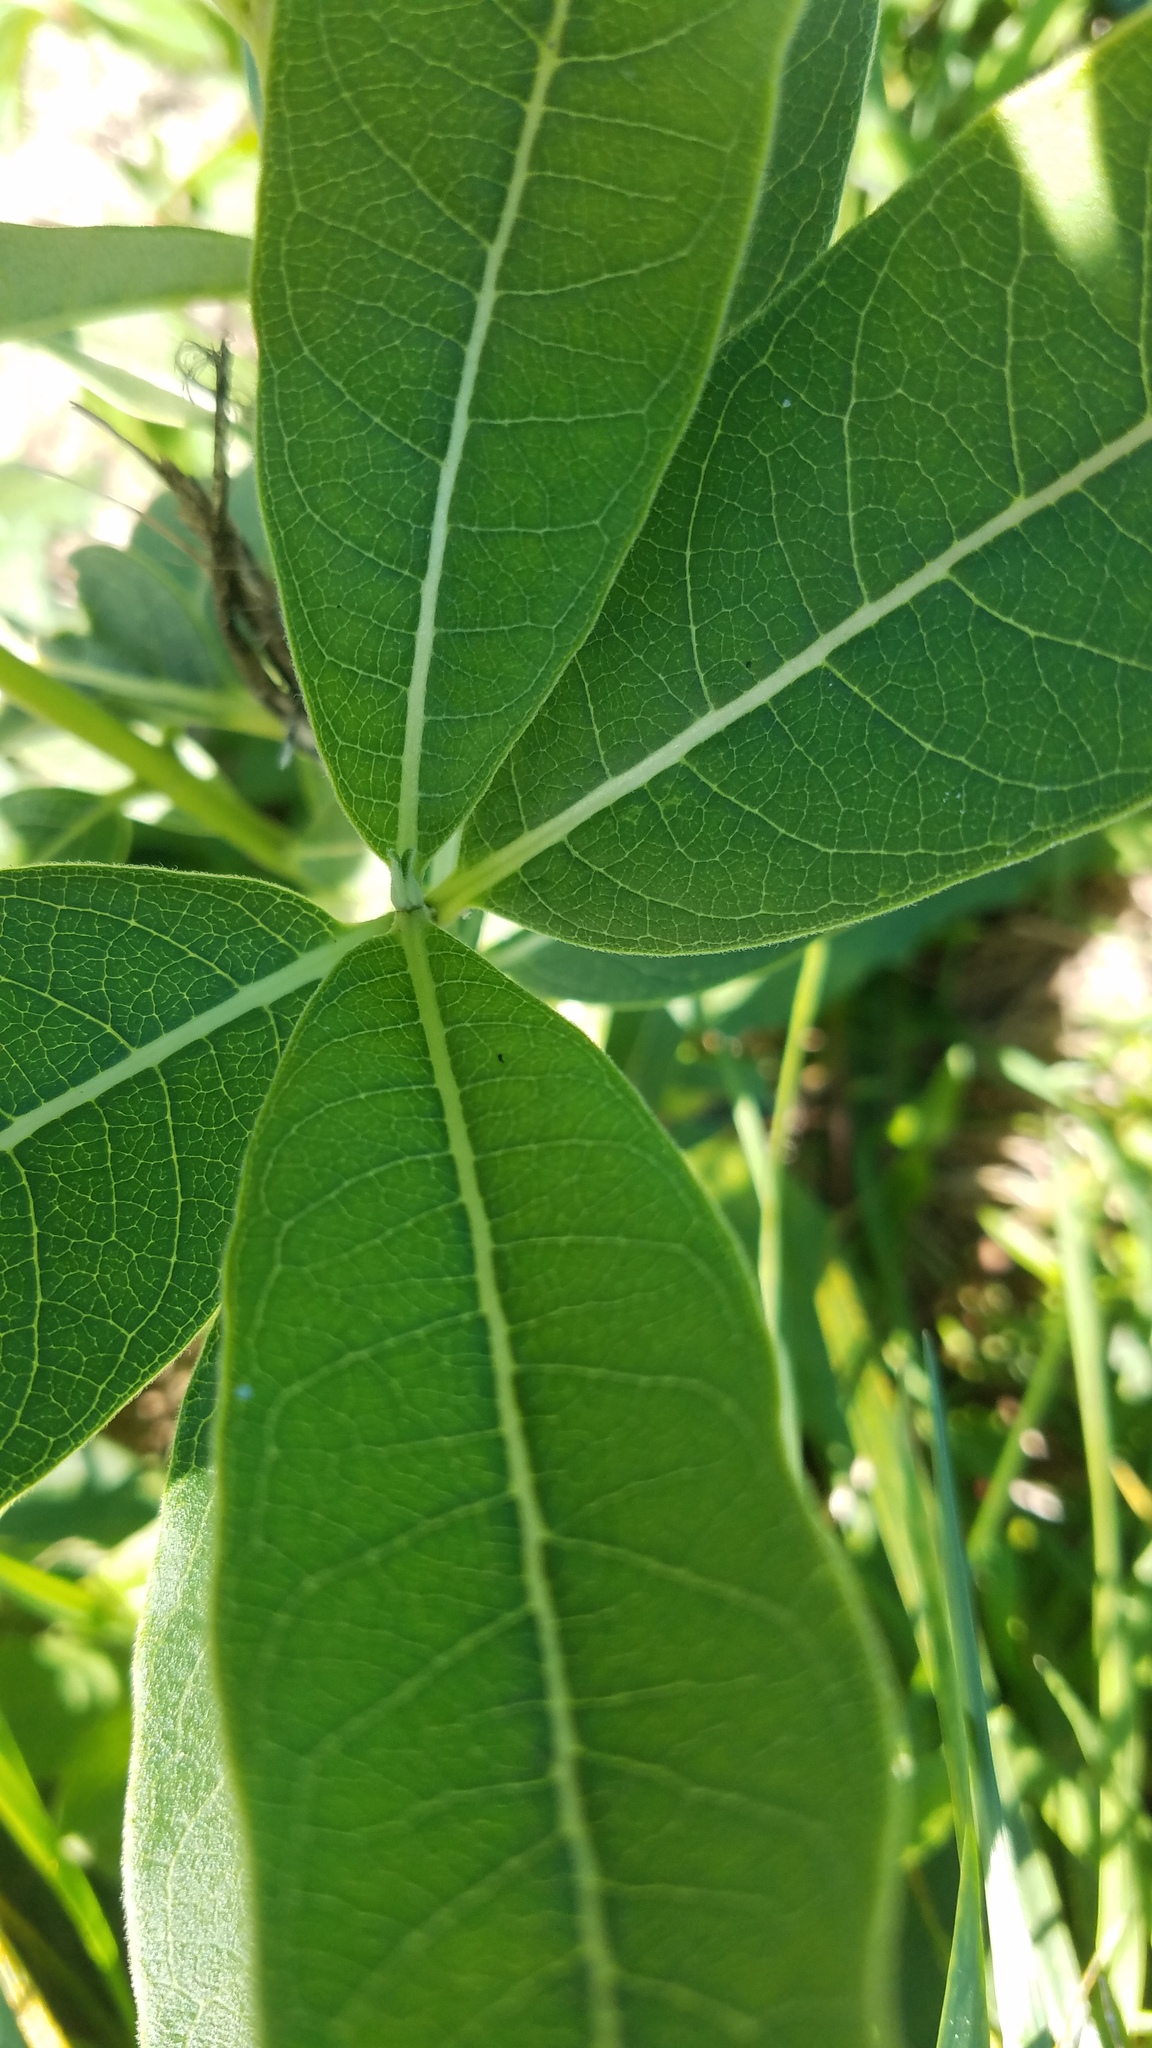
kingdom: Plantae
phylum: Tracheophyta
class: Magnoliopsida
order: Gentianales
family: Apocynaceae
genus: Asclepias
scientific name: Asclepias syriaca
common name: Common milkweed
